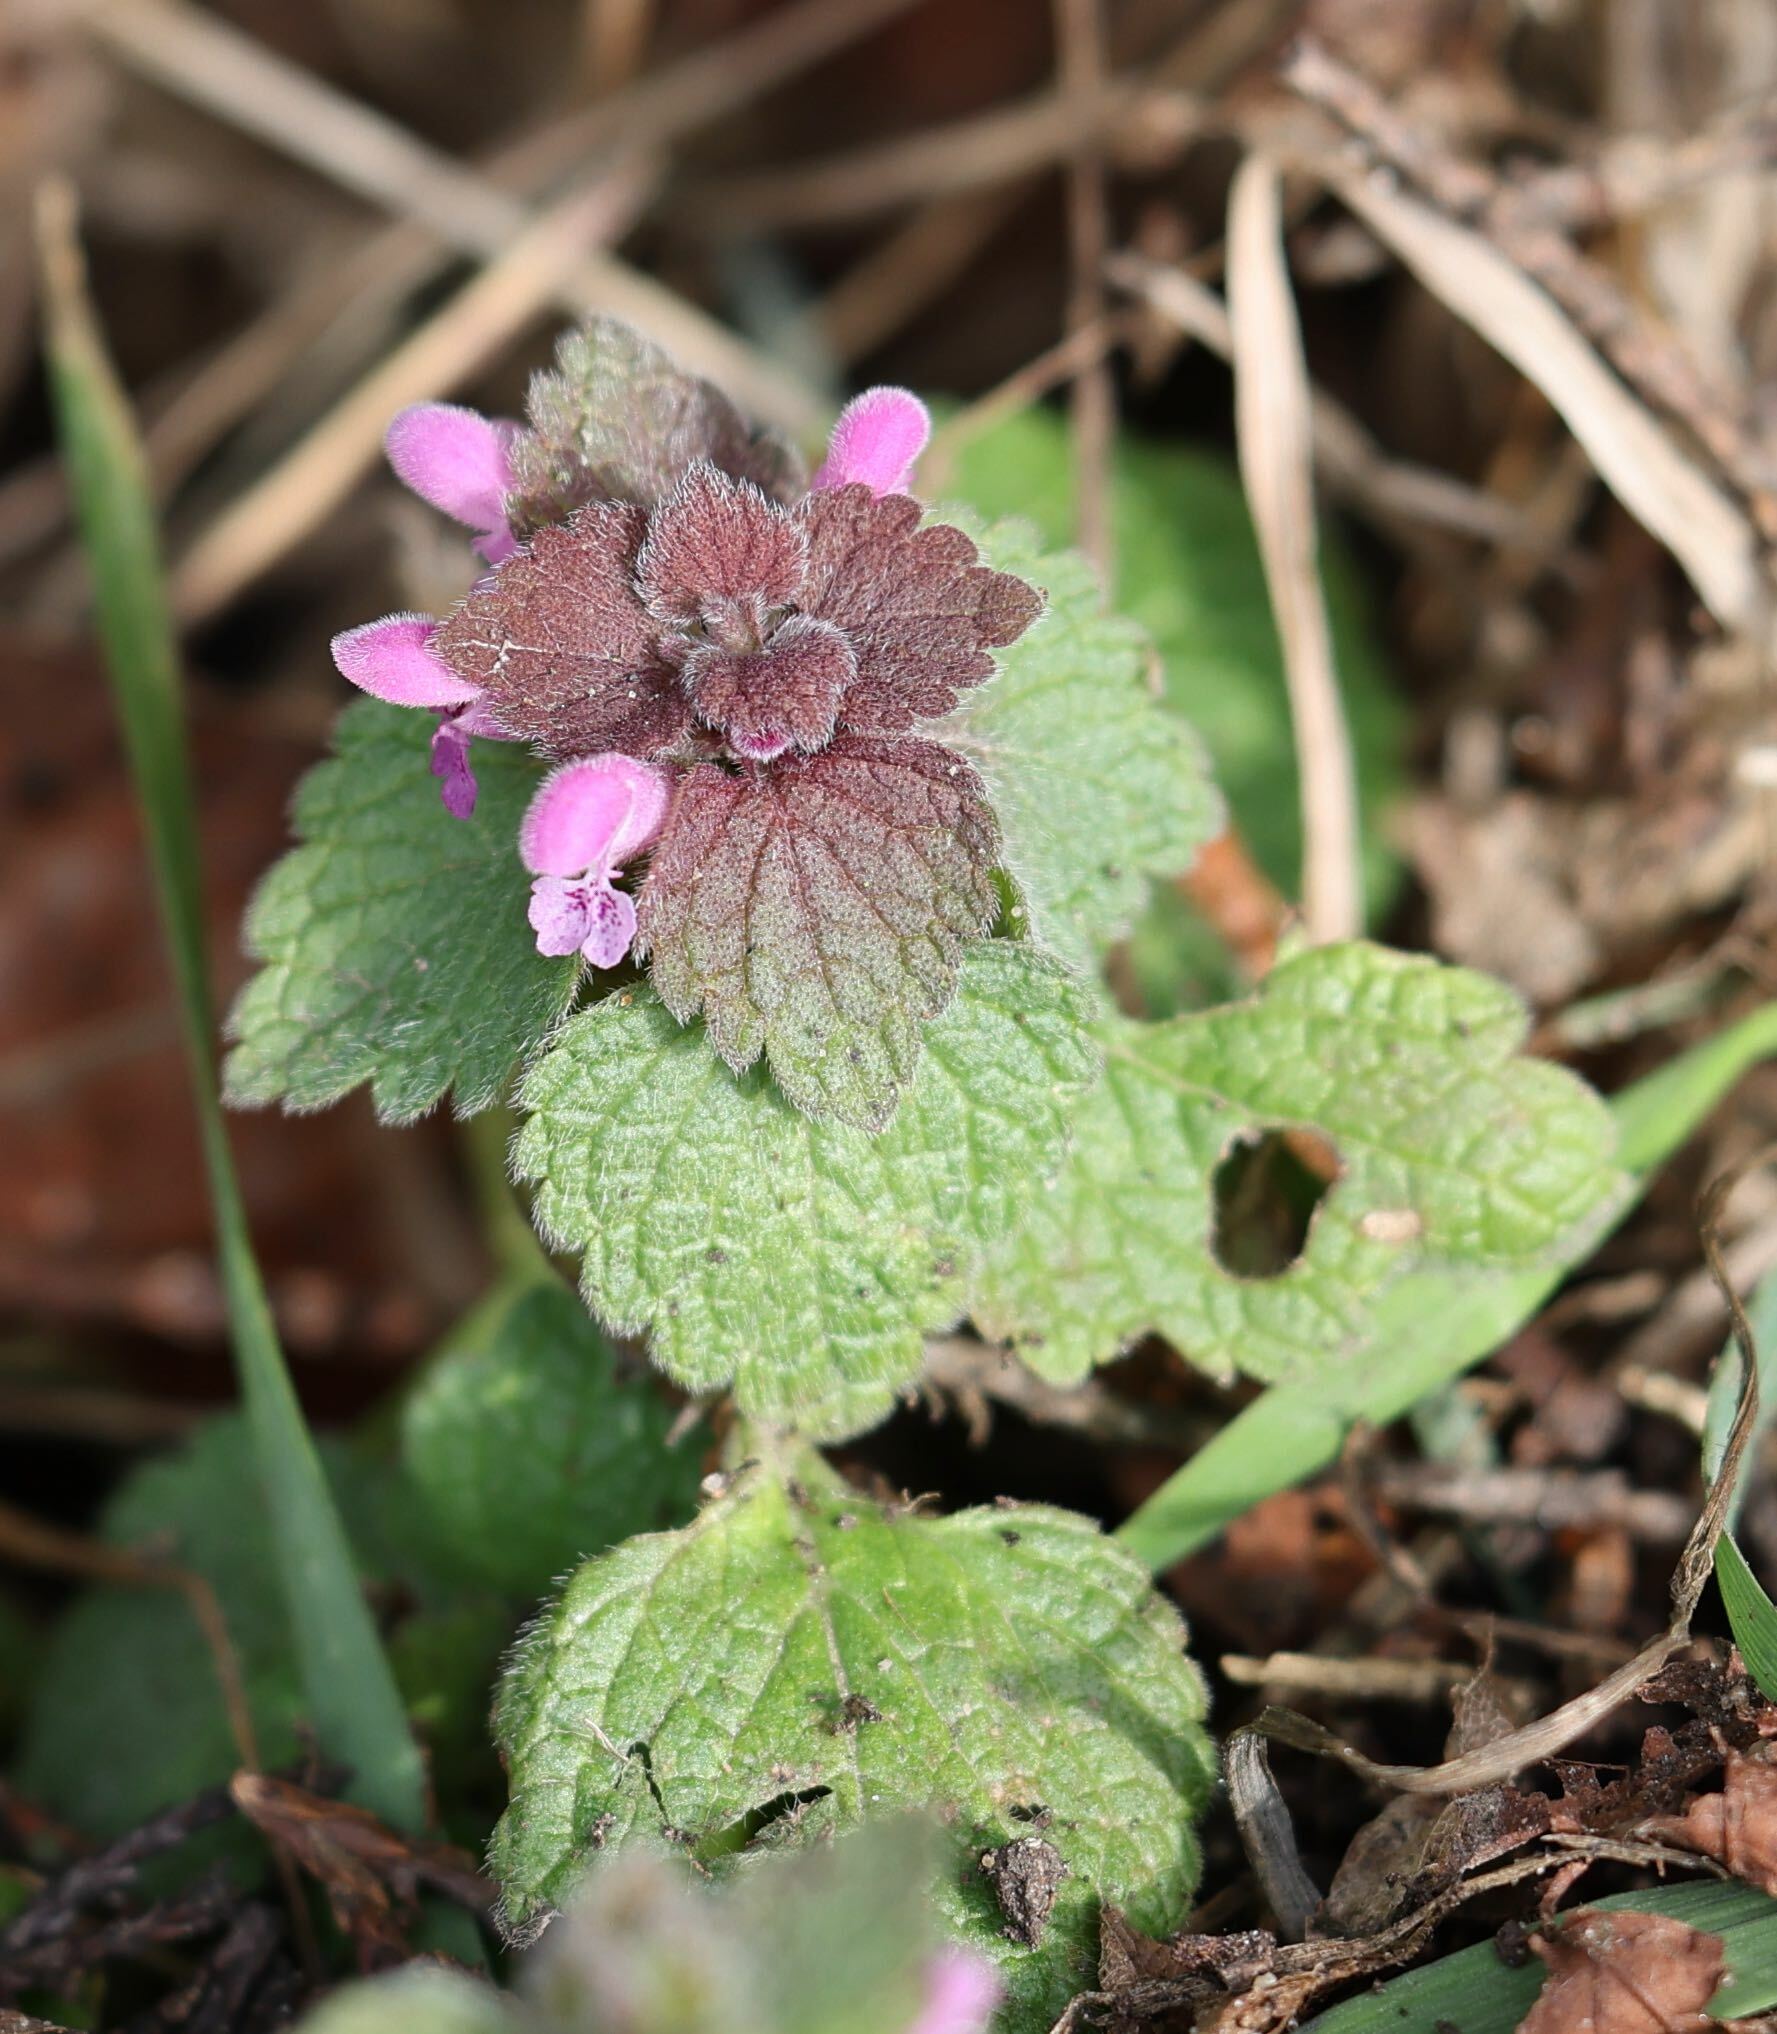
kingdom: Plantae
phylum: Tracheophyta
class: Magnoliopsida
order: Lamiales
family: Lamiaceae
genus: Lamium
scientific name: Lamium purpureum
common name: Red dead-nettle
